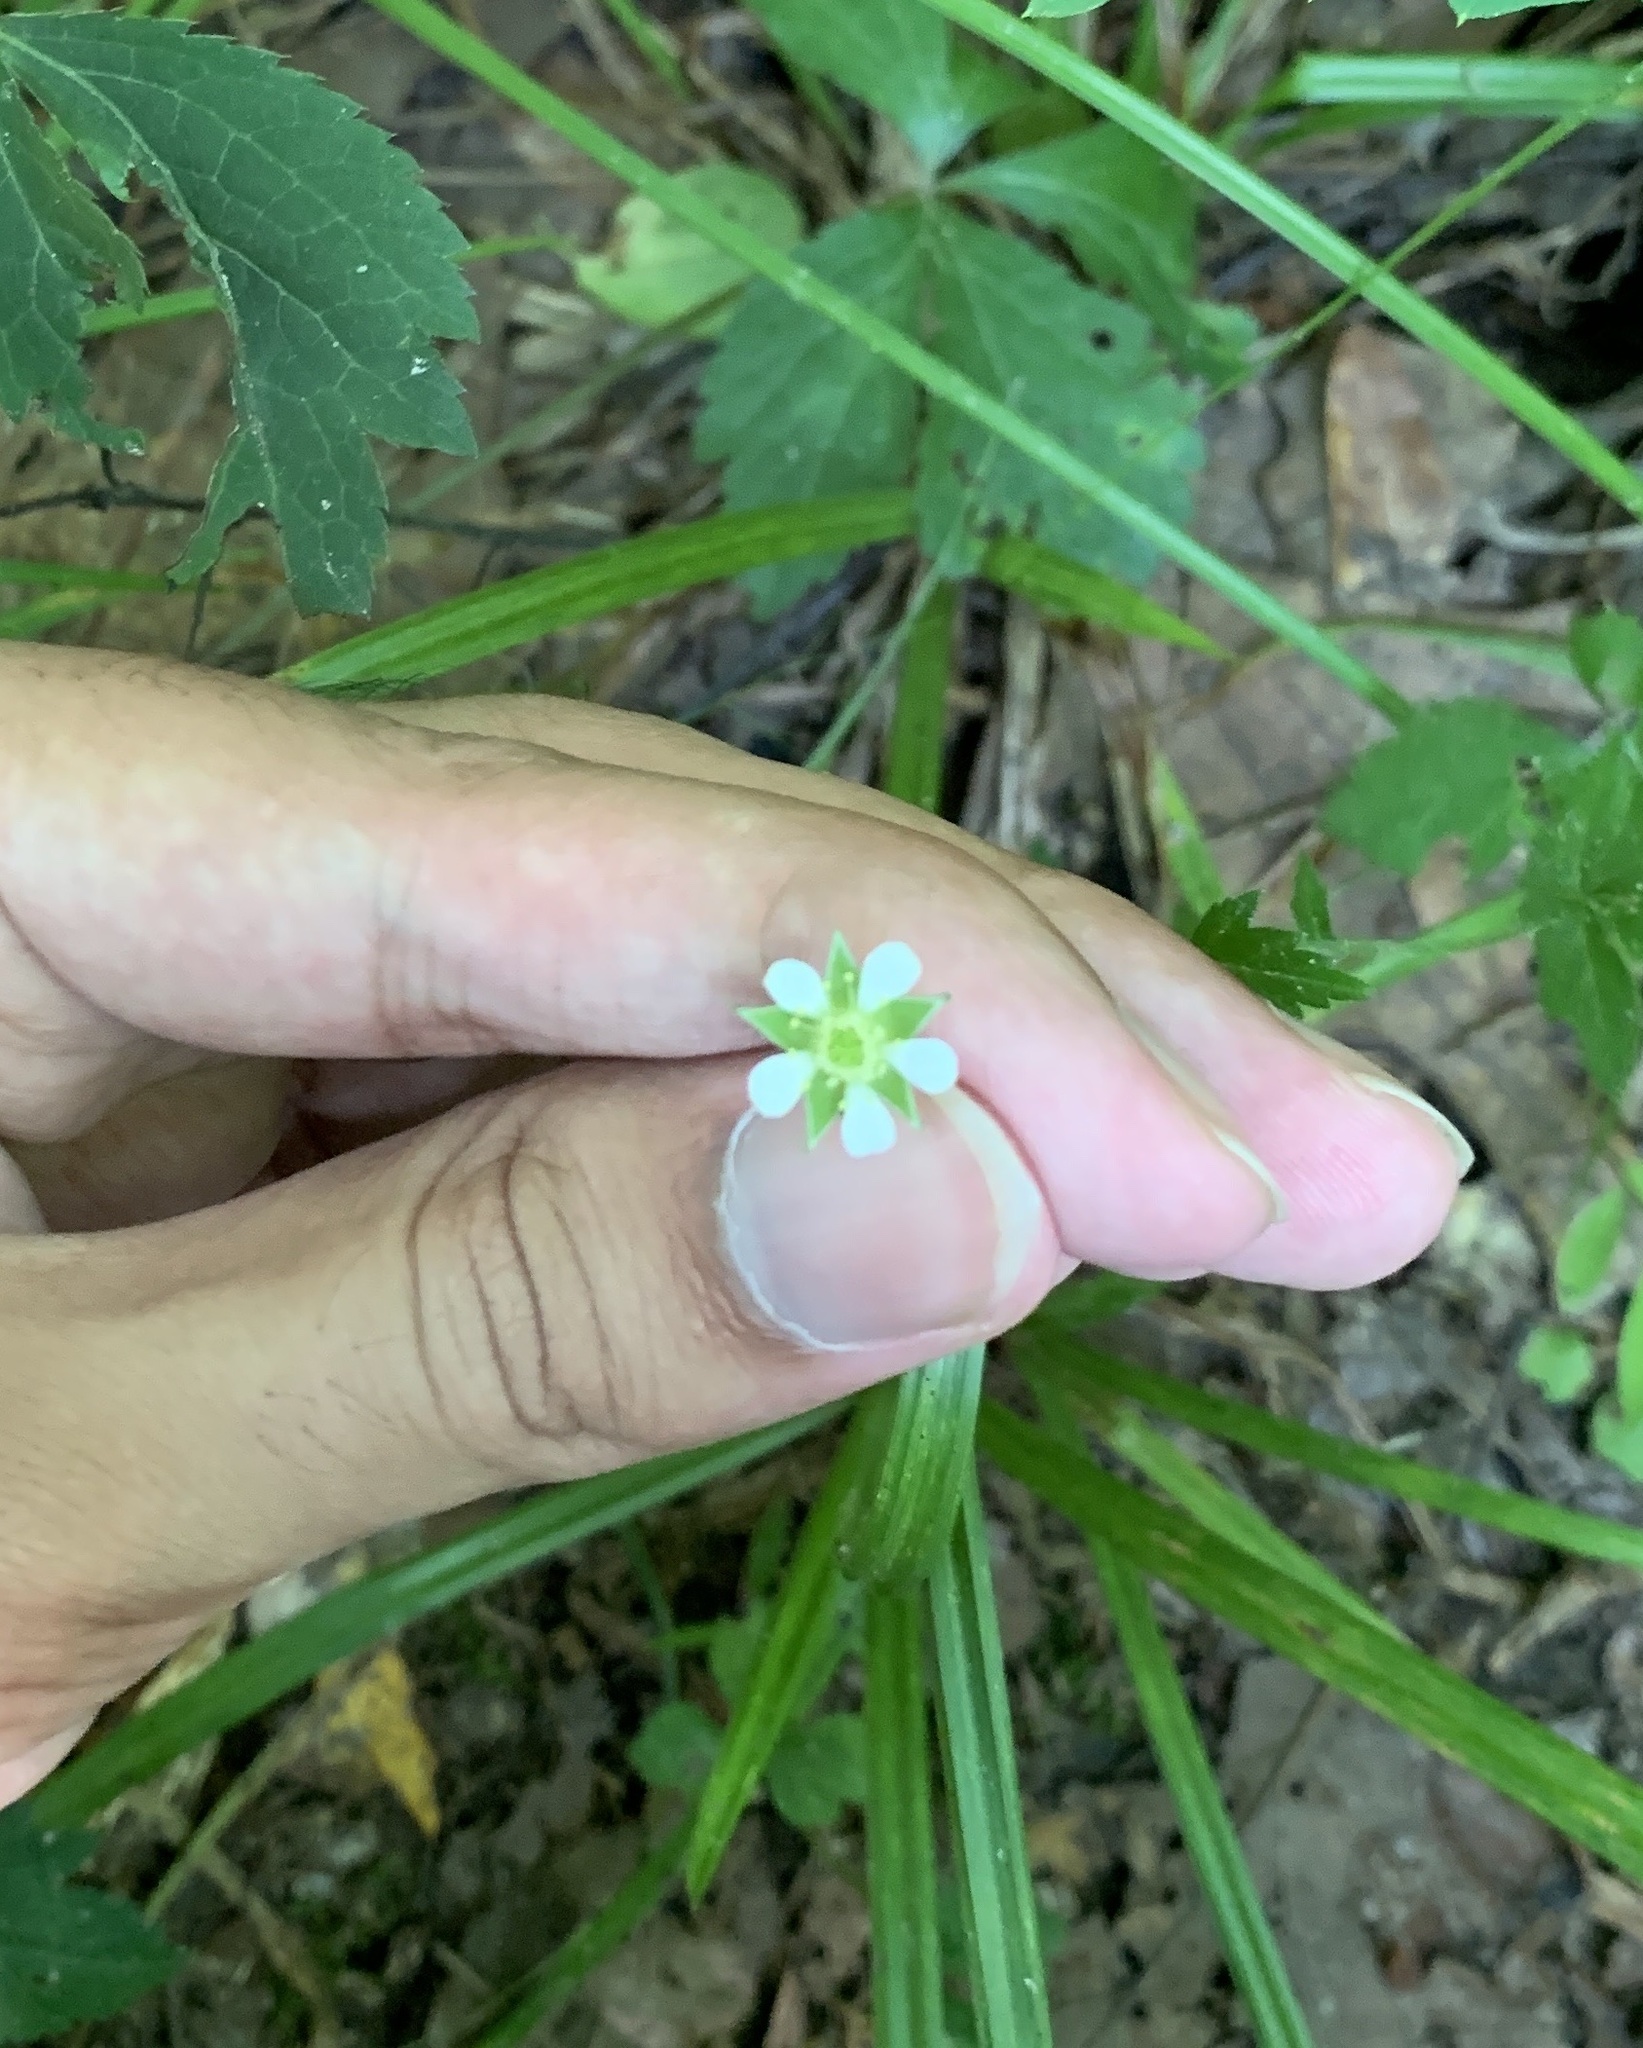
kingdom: Plantae
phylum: Tracheophyta
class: Magnoliopsida
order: Rosales
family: Rosaceae
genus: Geum
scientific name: Geum canadense
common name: White avens
